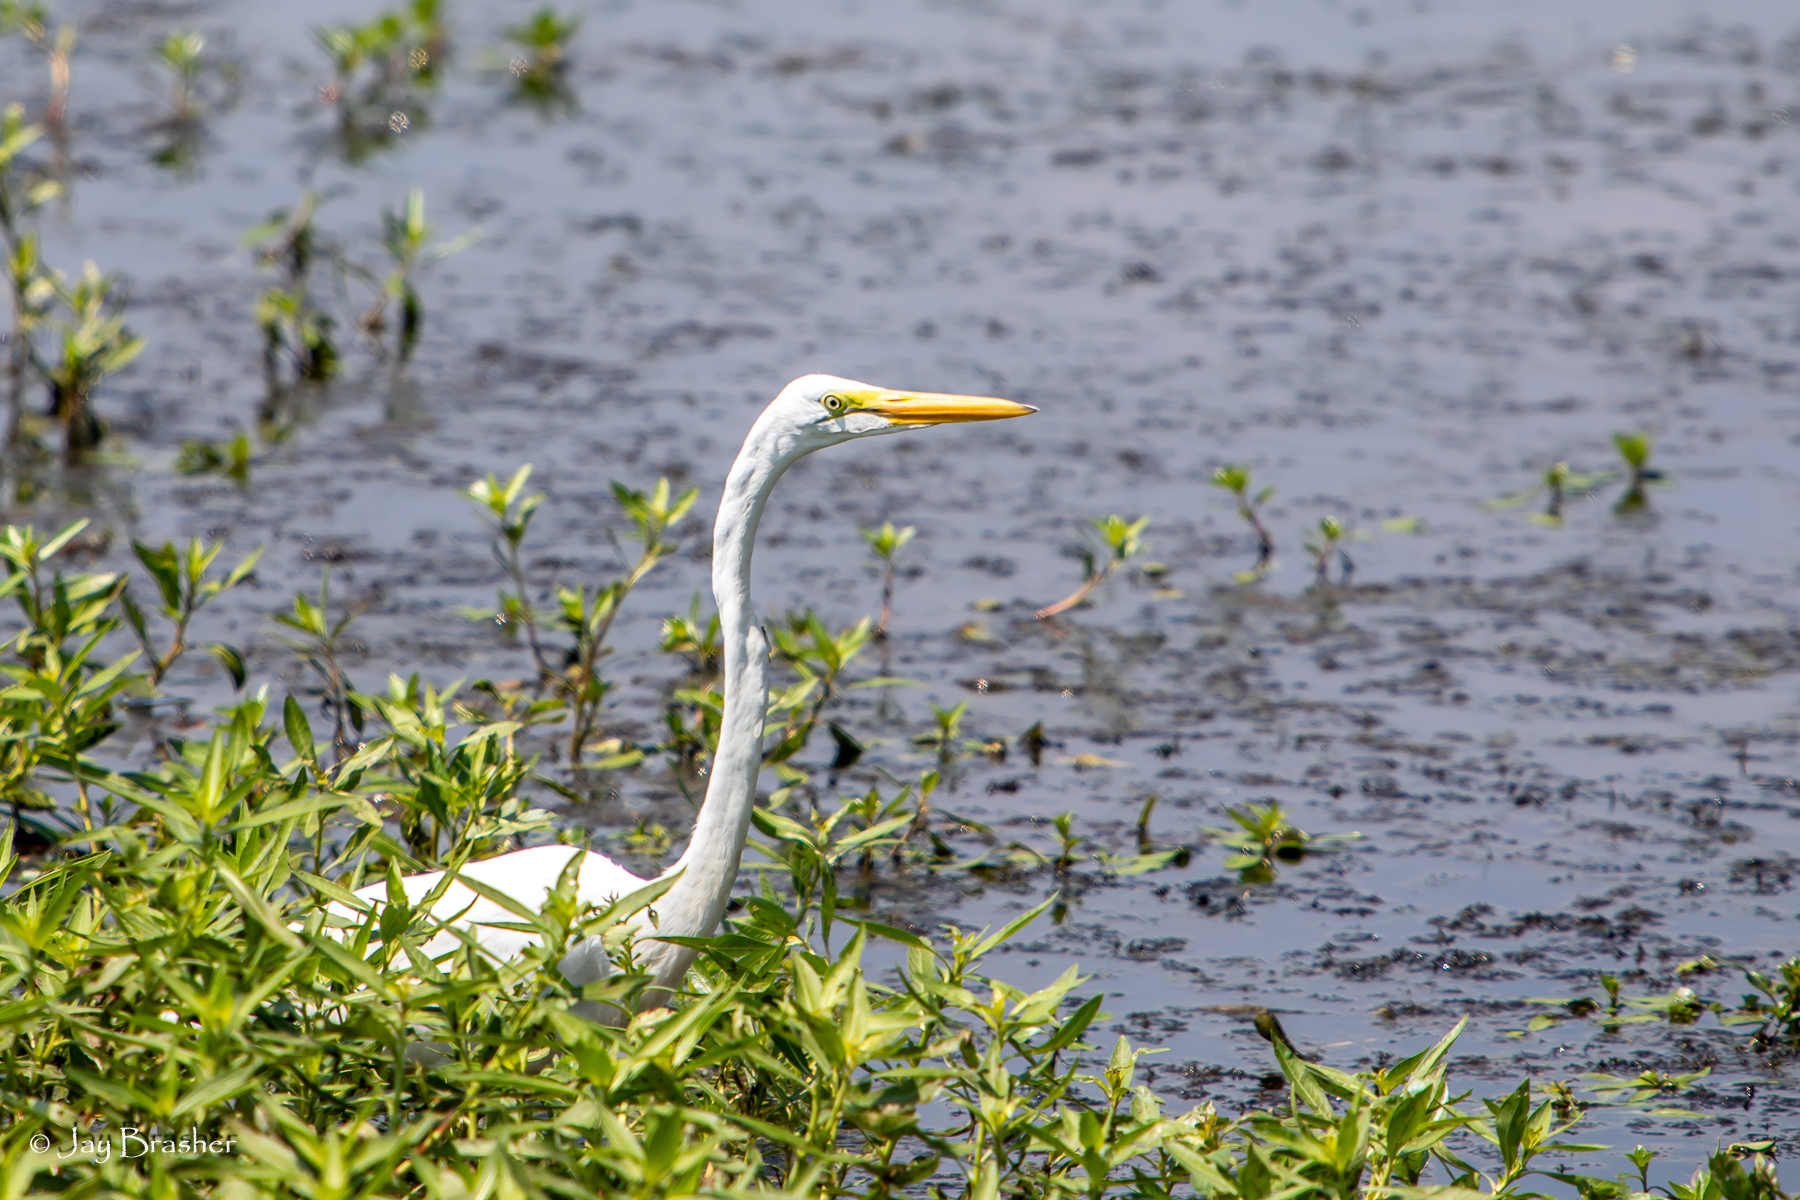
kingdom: Animalia
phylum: Chordata
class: Aves
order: Pelecaniformes
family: Ardeidae
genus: Ardea
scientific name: Ardea alba
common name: Great egret
